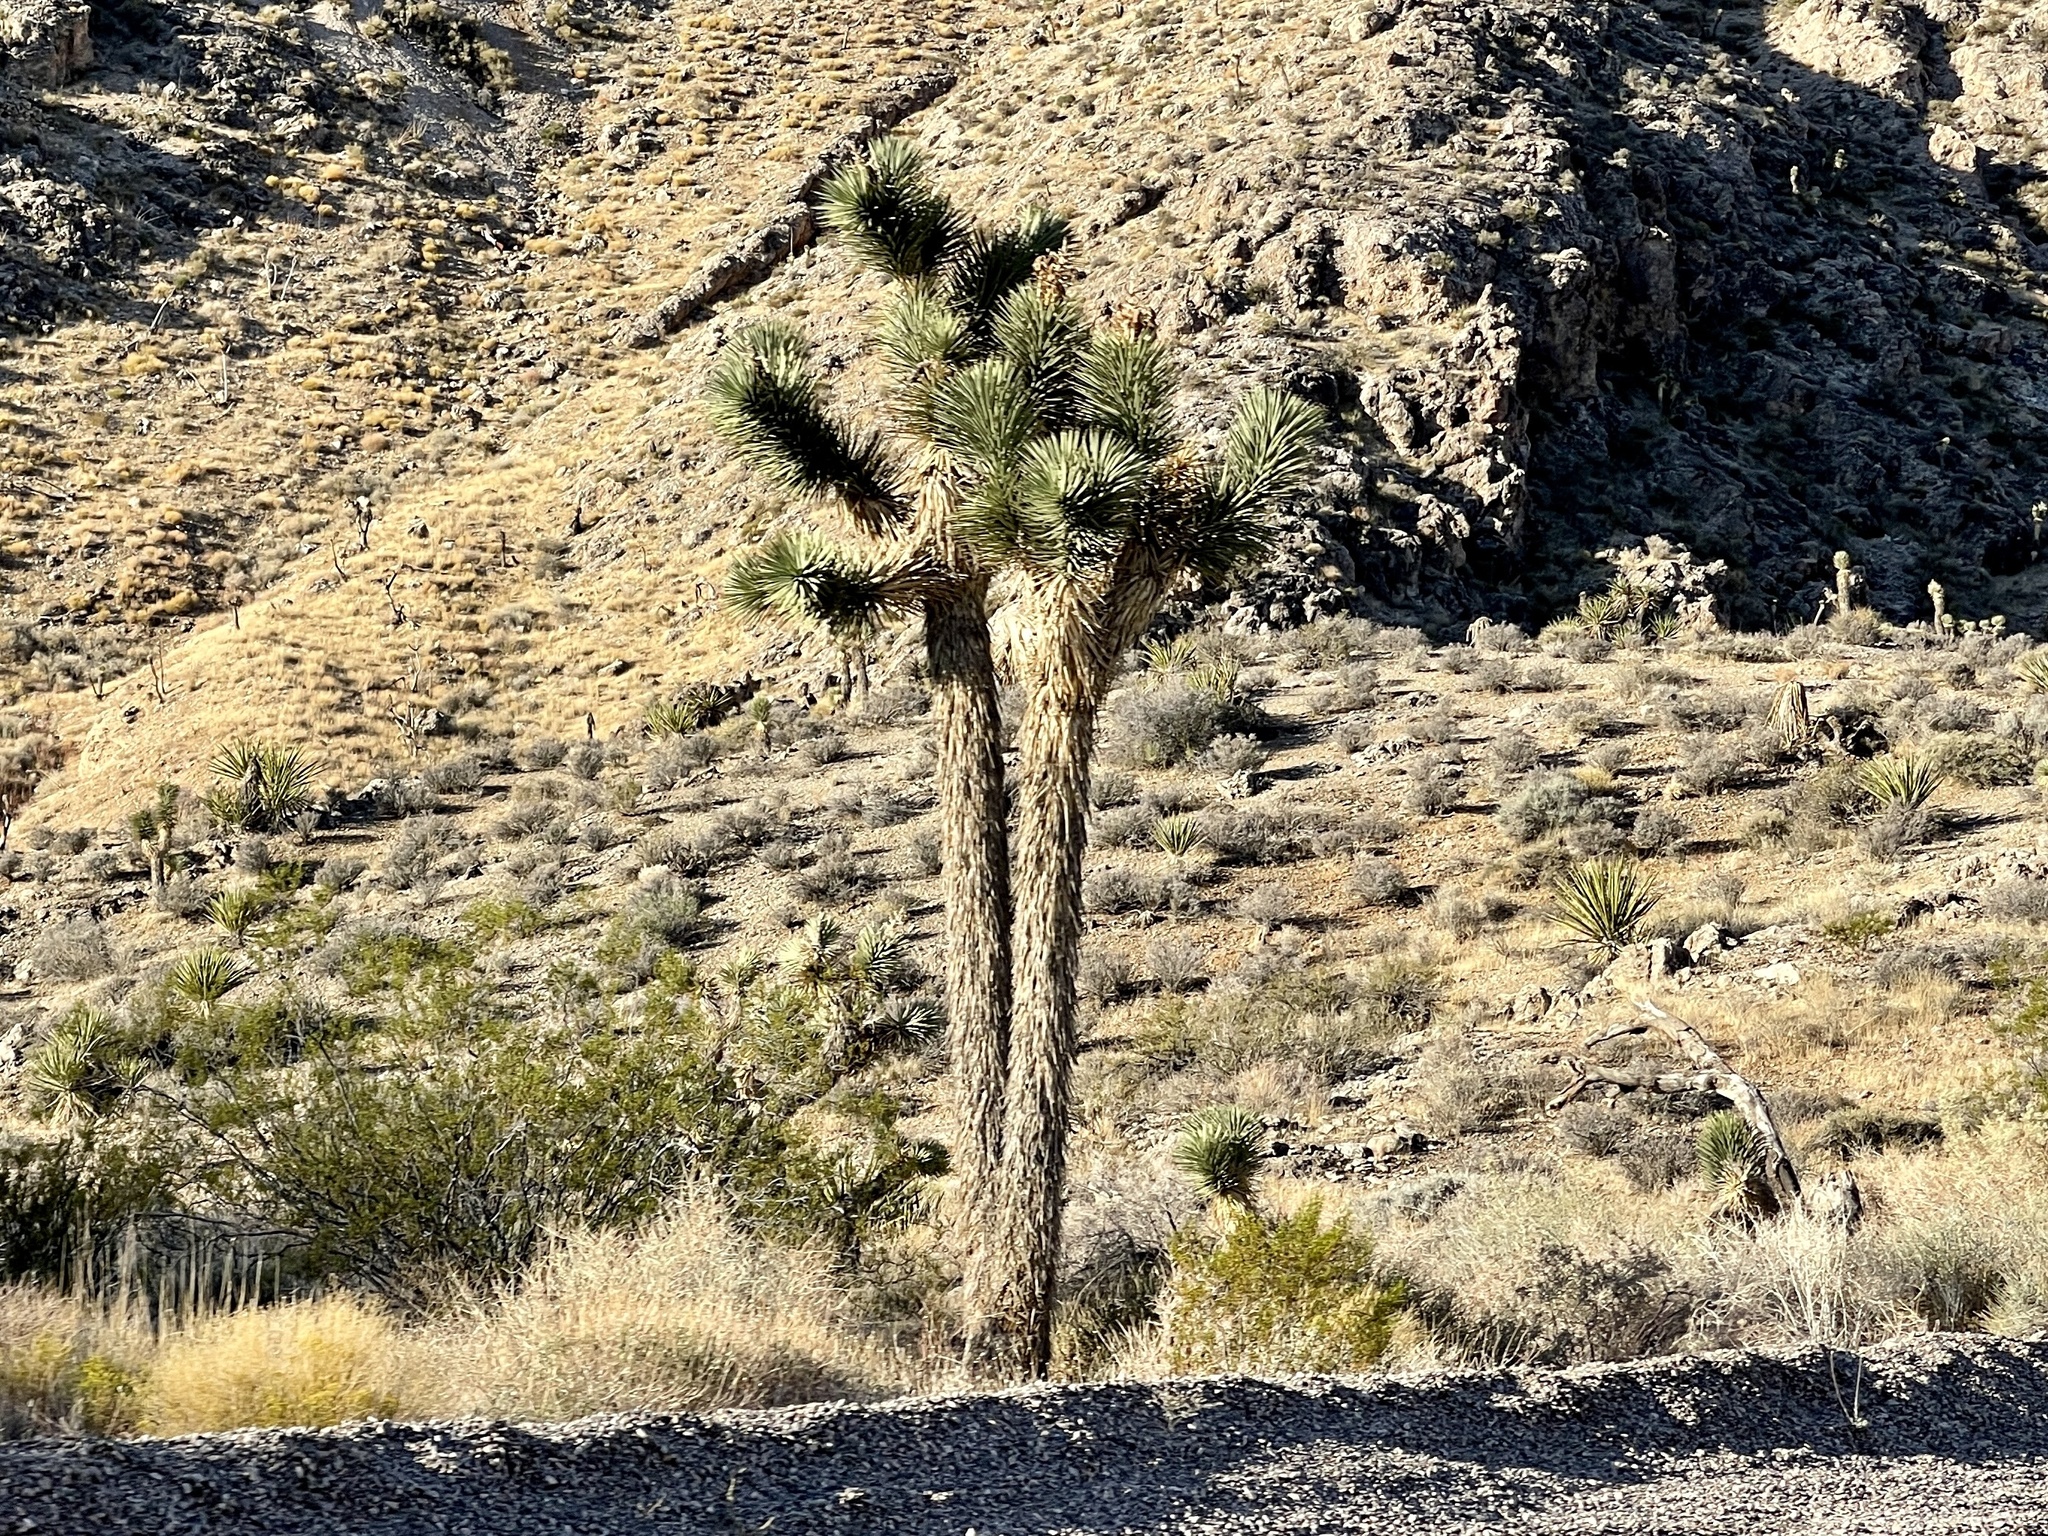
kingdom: Plantae
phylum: Tracheophyta
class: Liliopsida
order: Asparagales
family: Asparagaceae
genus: Yucca
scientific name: Yucca brevifolia
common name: Joshua tree
